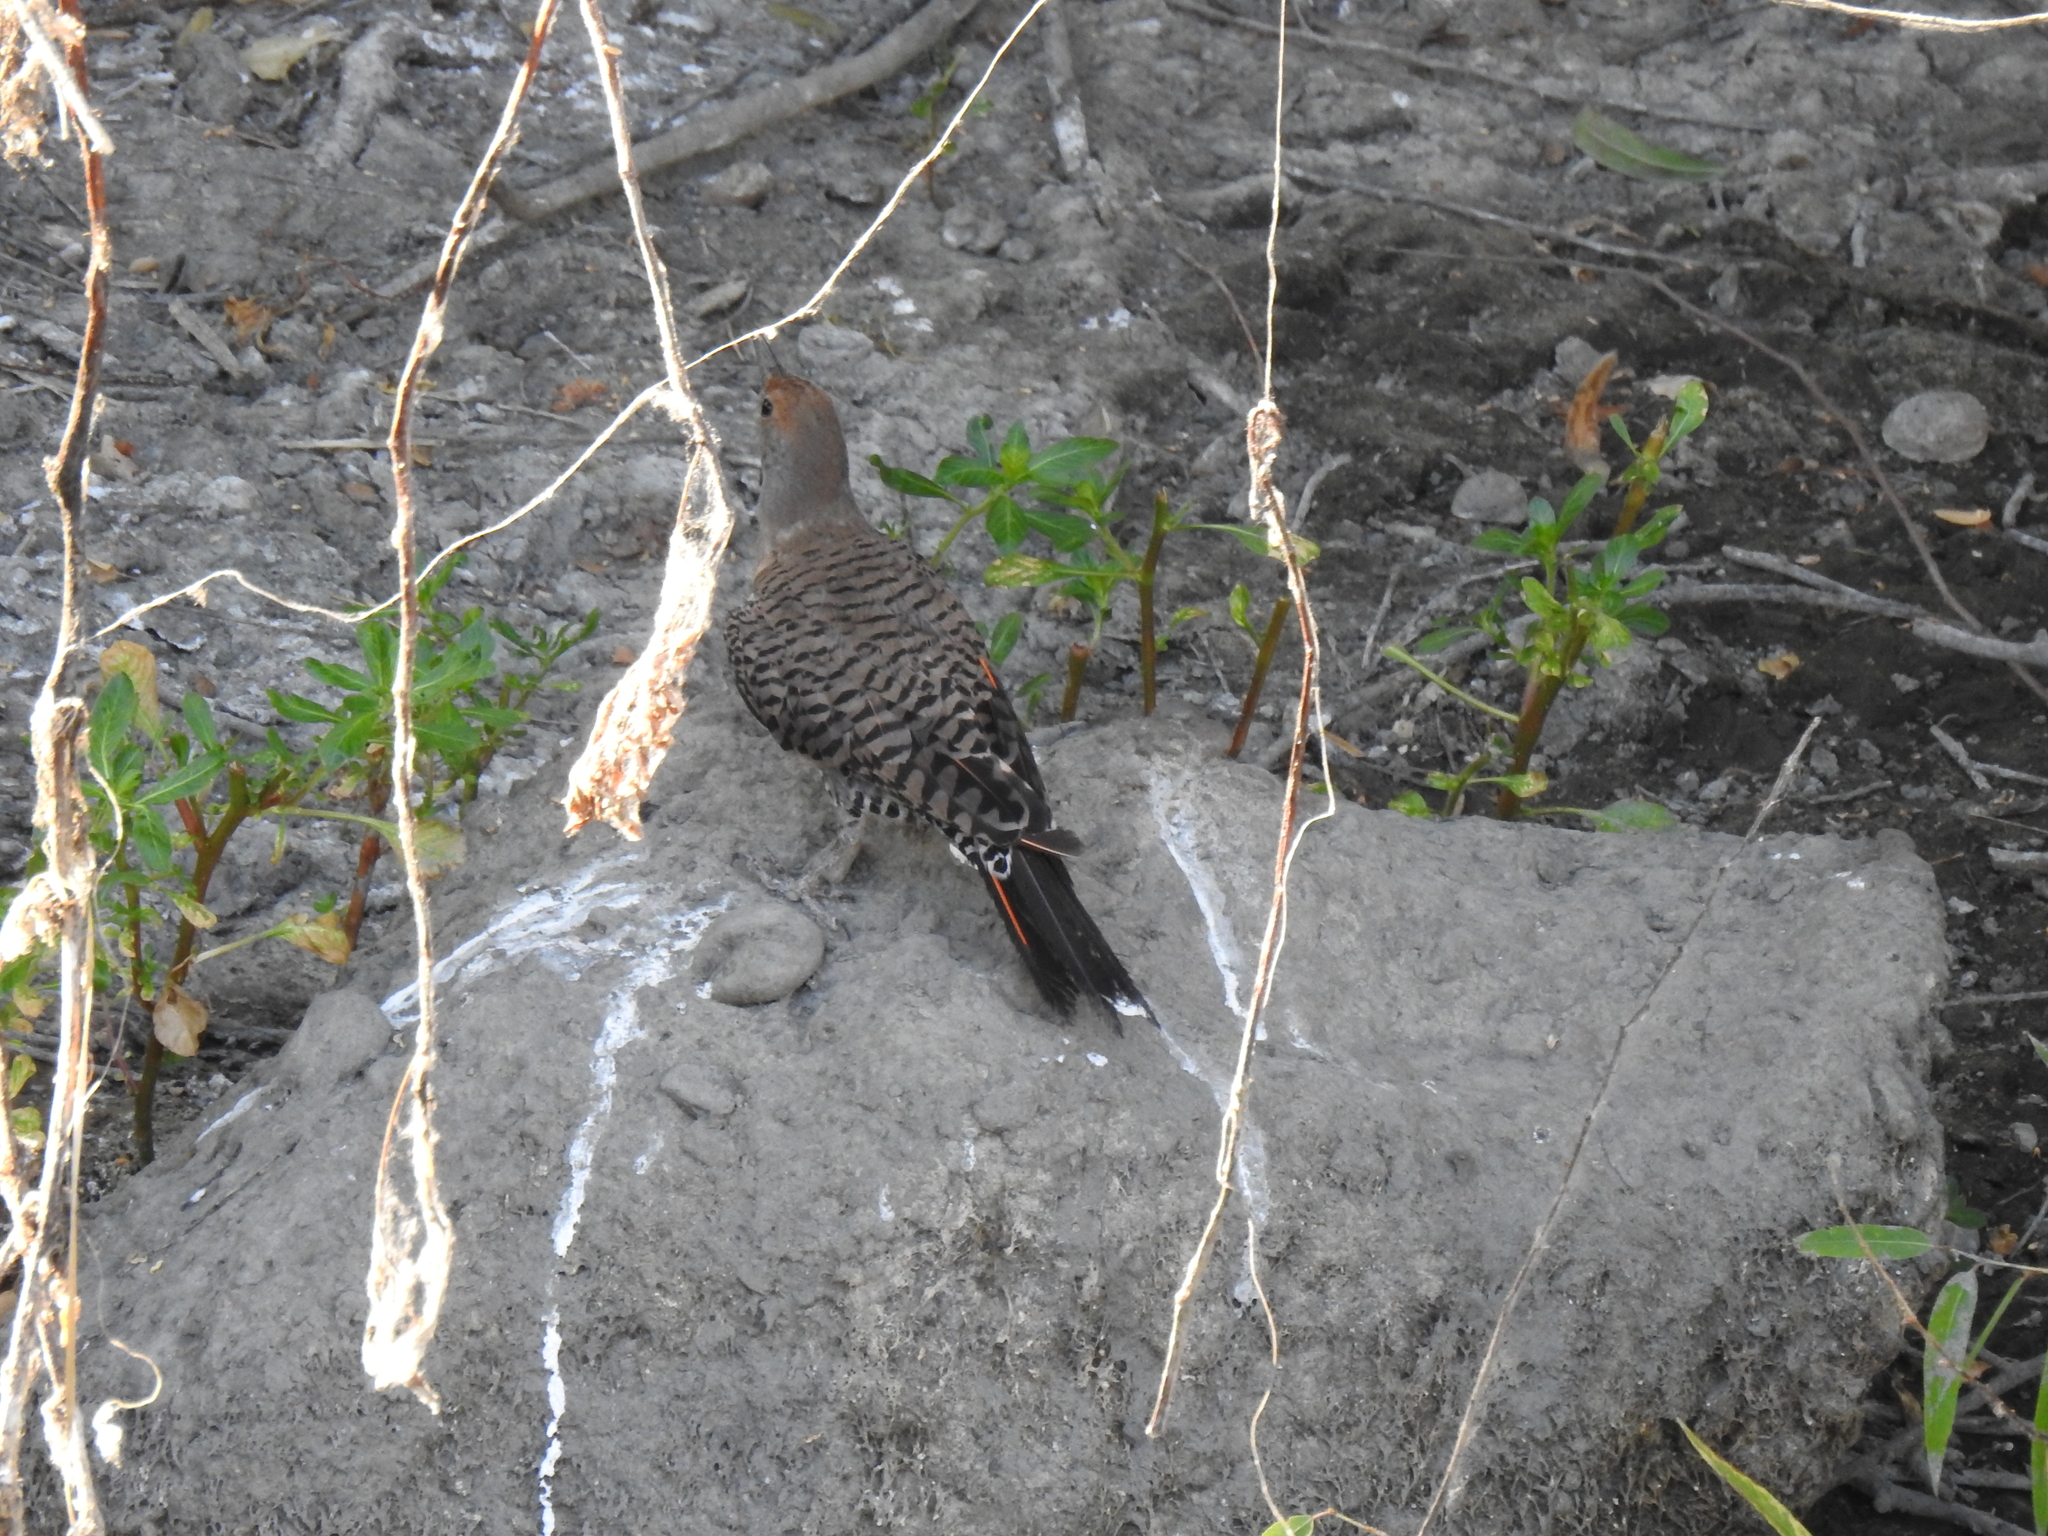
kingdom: Animalia
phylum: Chordata
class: Aves
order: Piciformes
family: Picidae
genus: Colaptes
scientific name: Colaptes auratus
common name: Northern flicker
